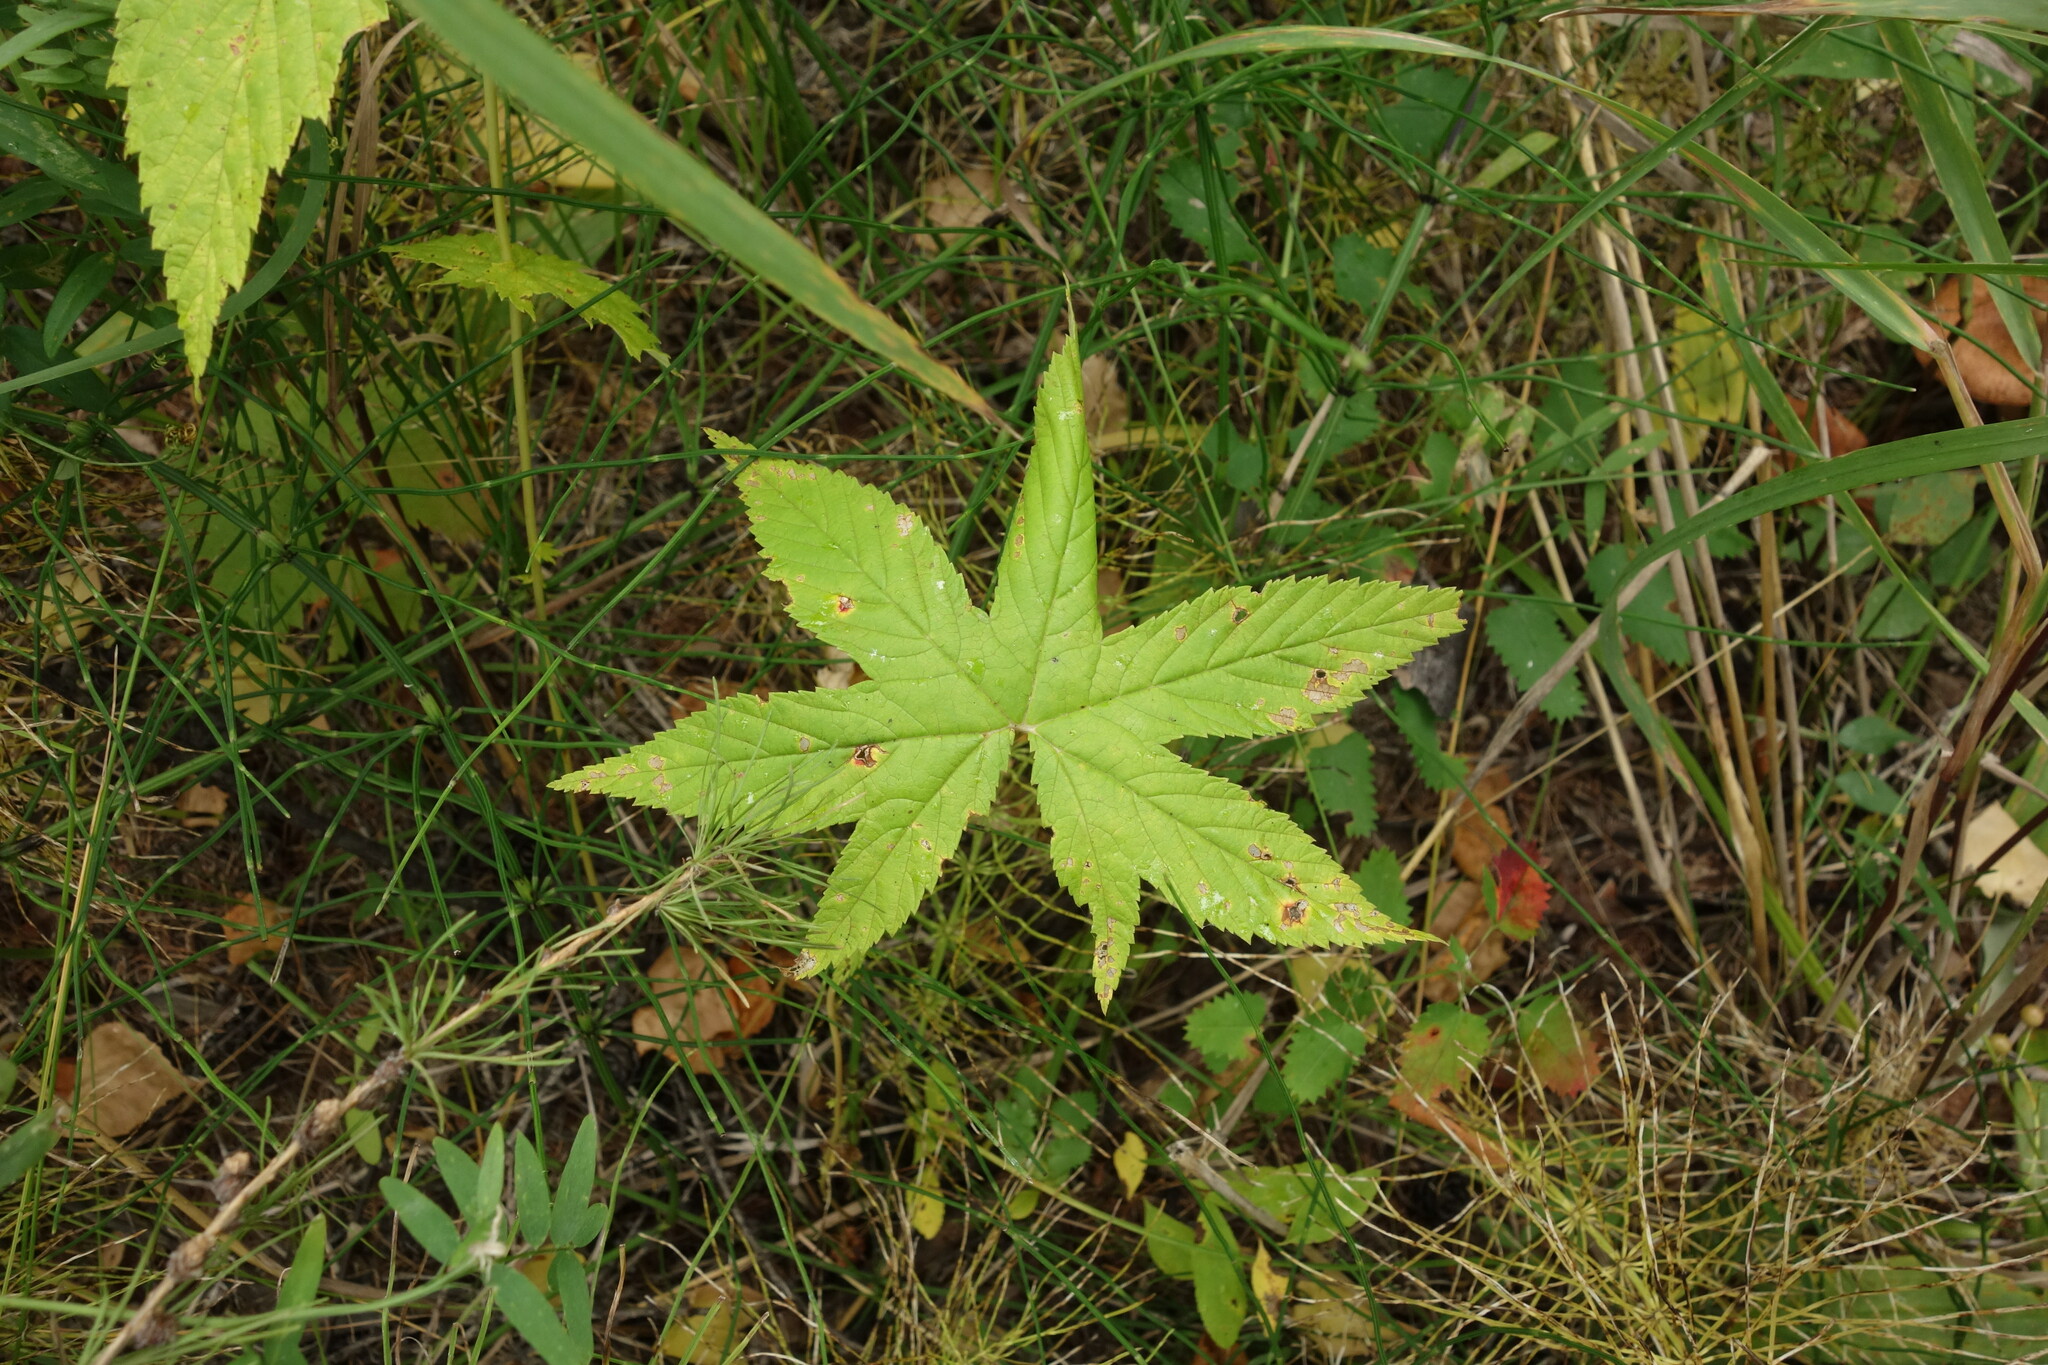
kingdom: Plantae
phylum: Tracheophyta
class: Magnoliopsida
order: Rosales
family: Rosaceae
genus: Filipendula
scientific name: Filipendula digitata
